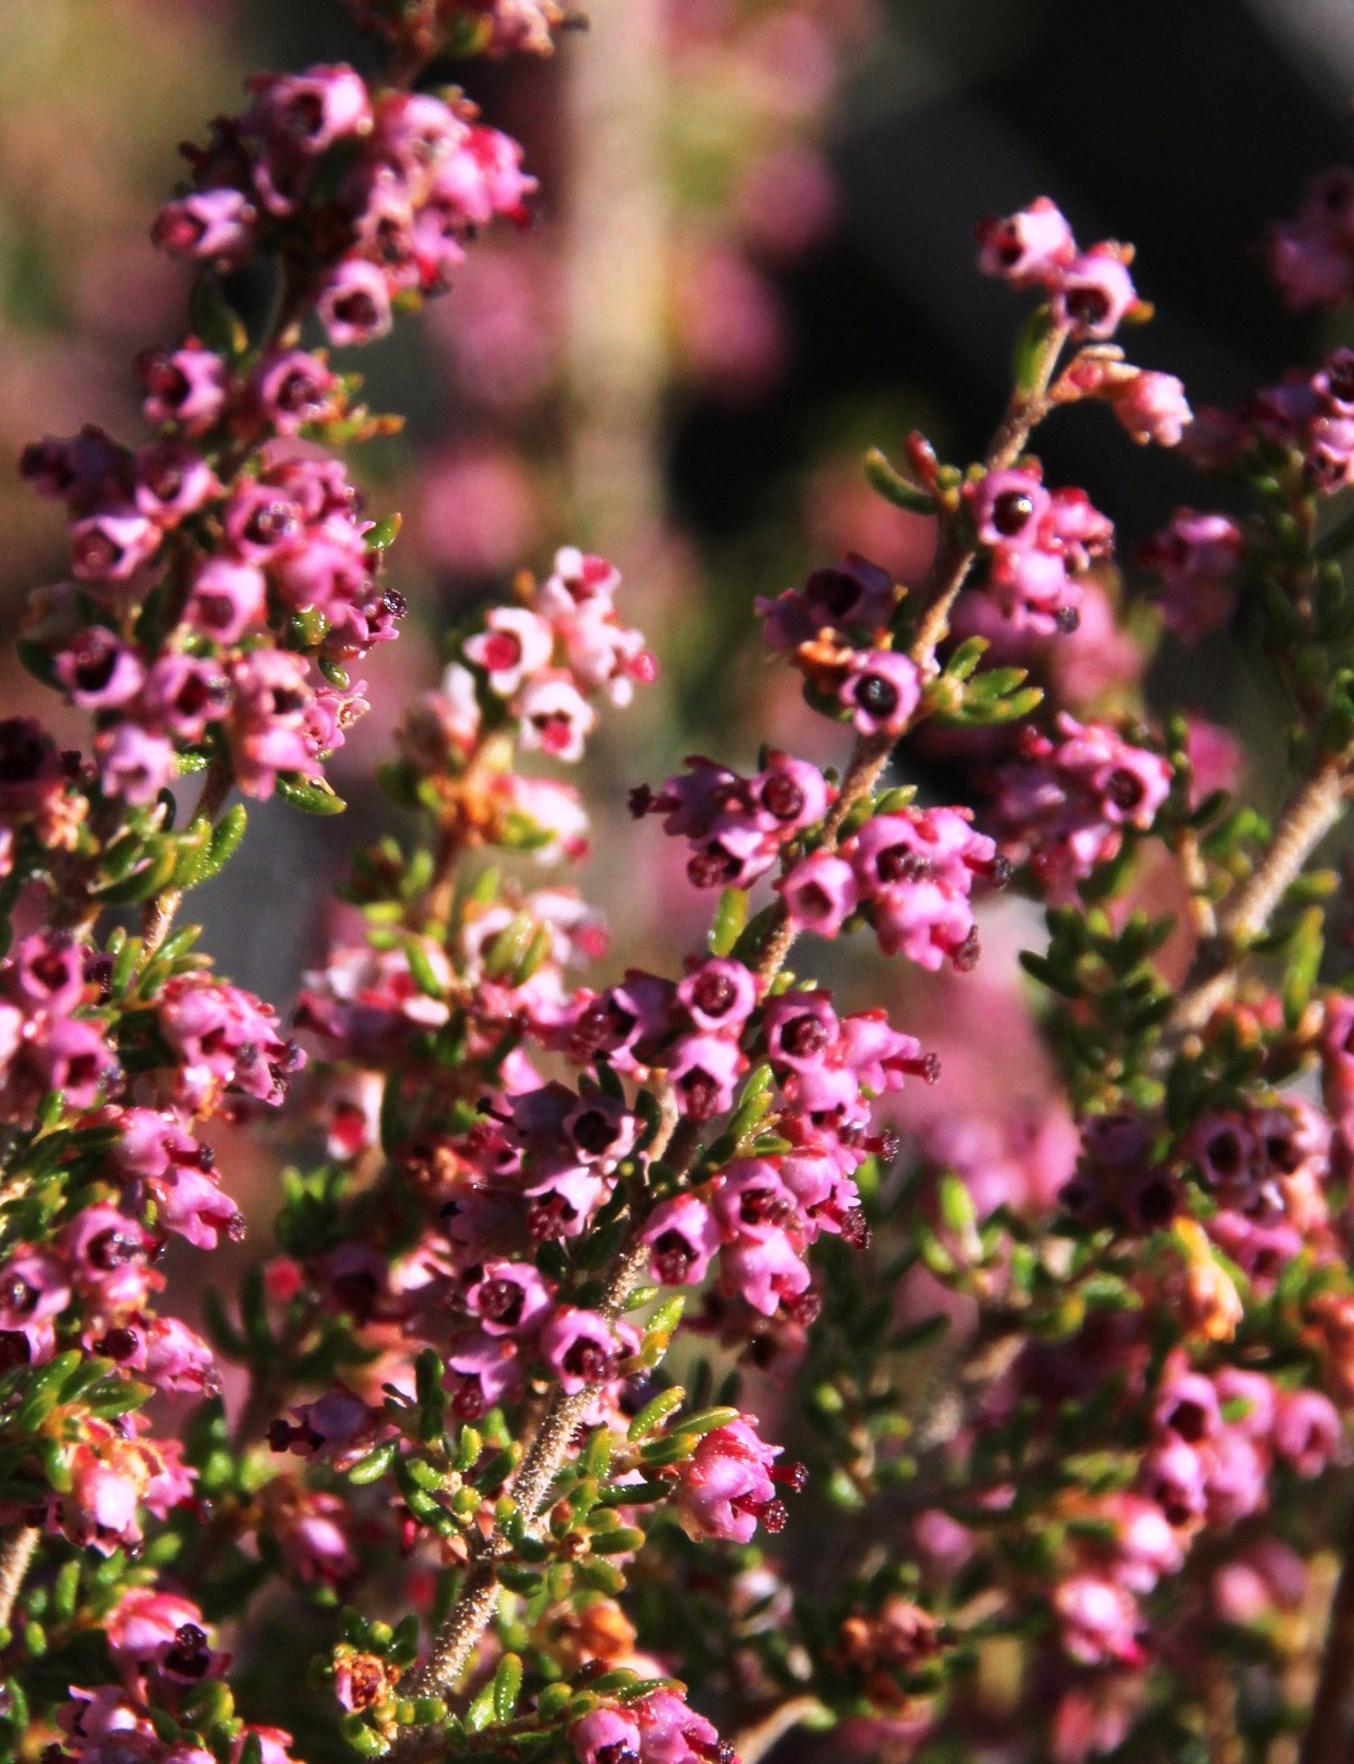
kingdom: Plantae
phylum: Tracheophyta
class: Magnoliopsida
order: Ericales
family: Ericaceae
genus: Erica
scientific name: Erica hispidula
